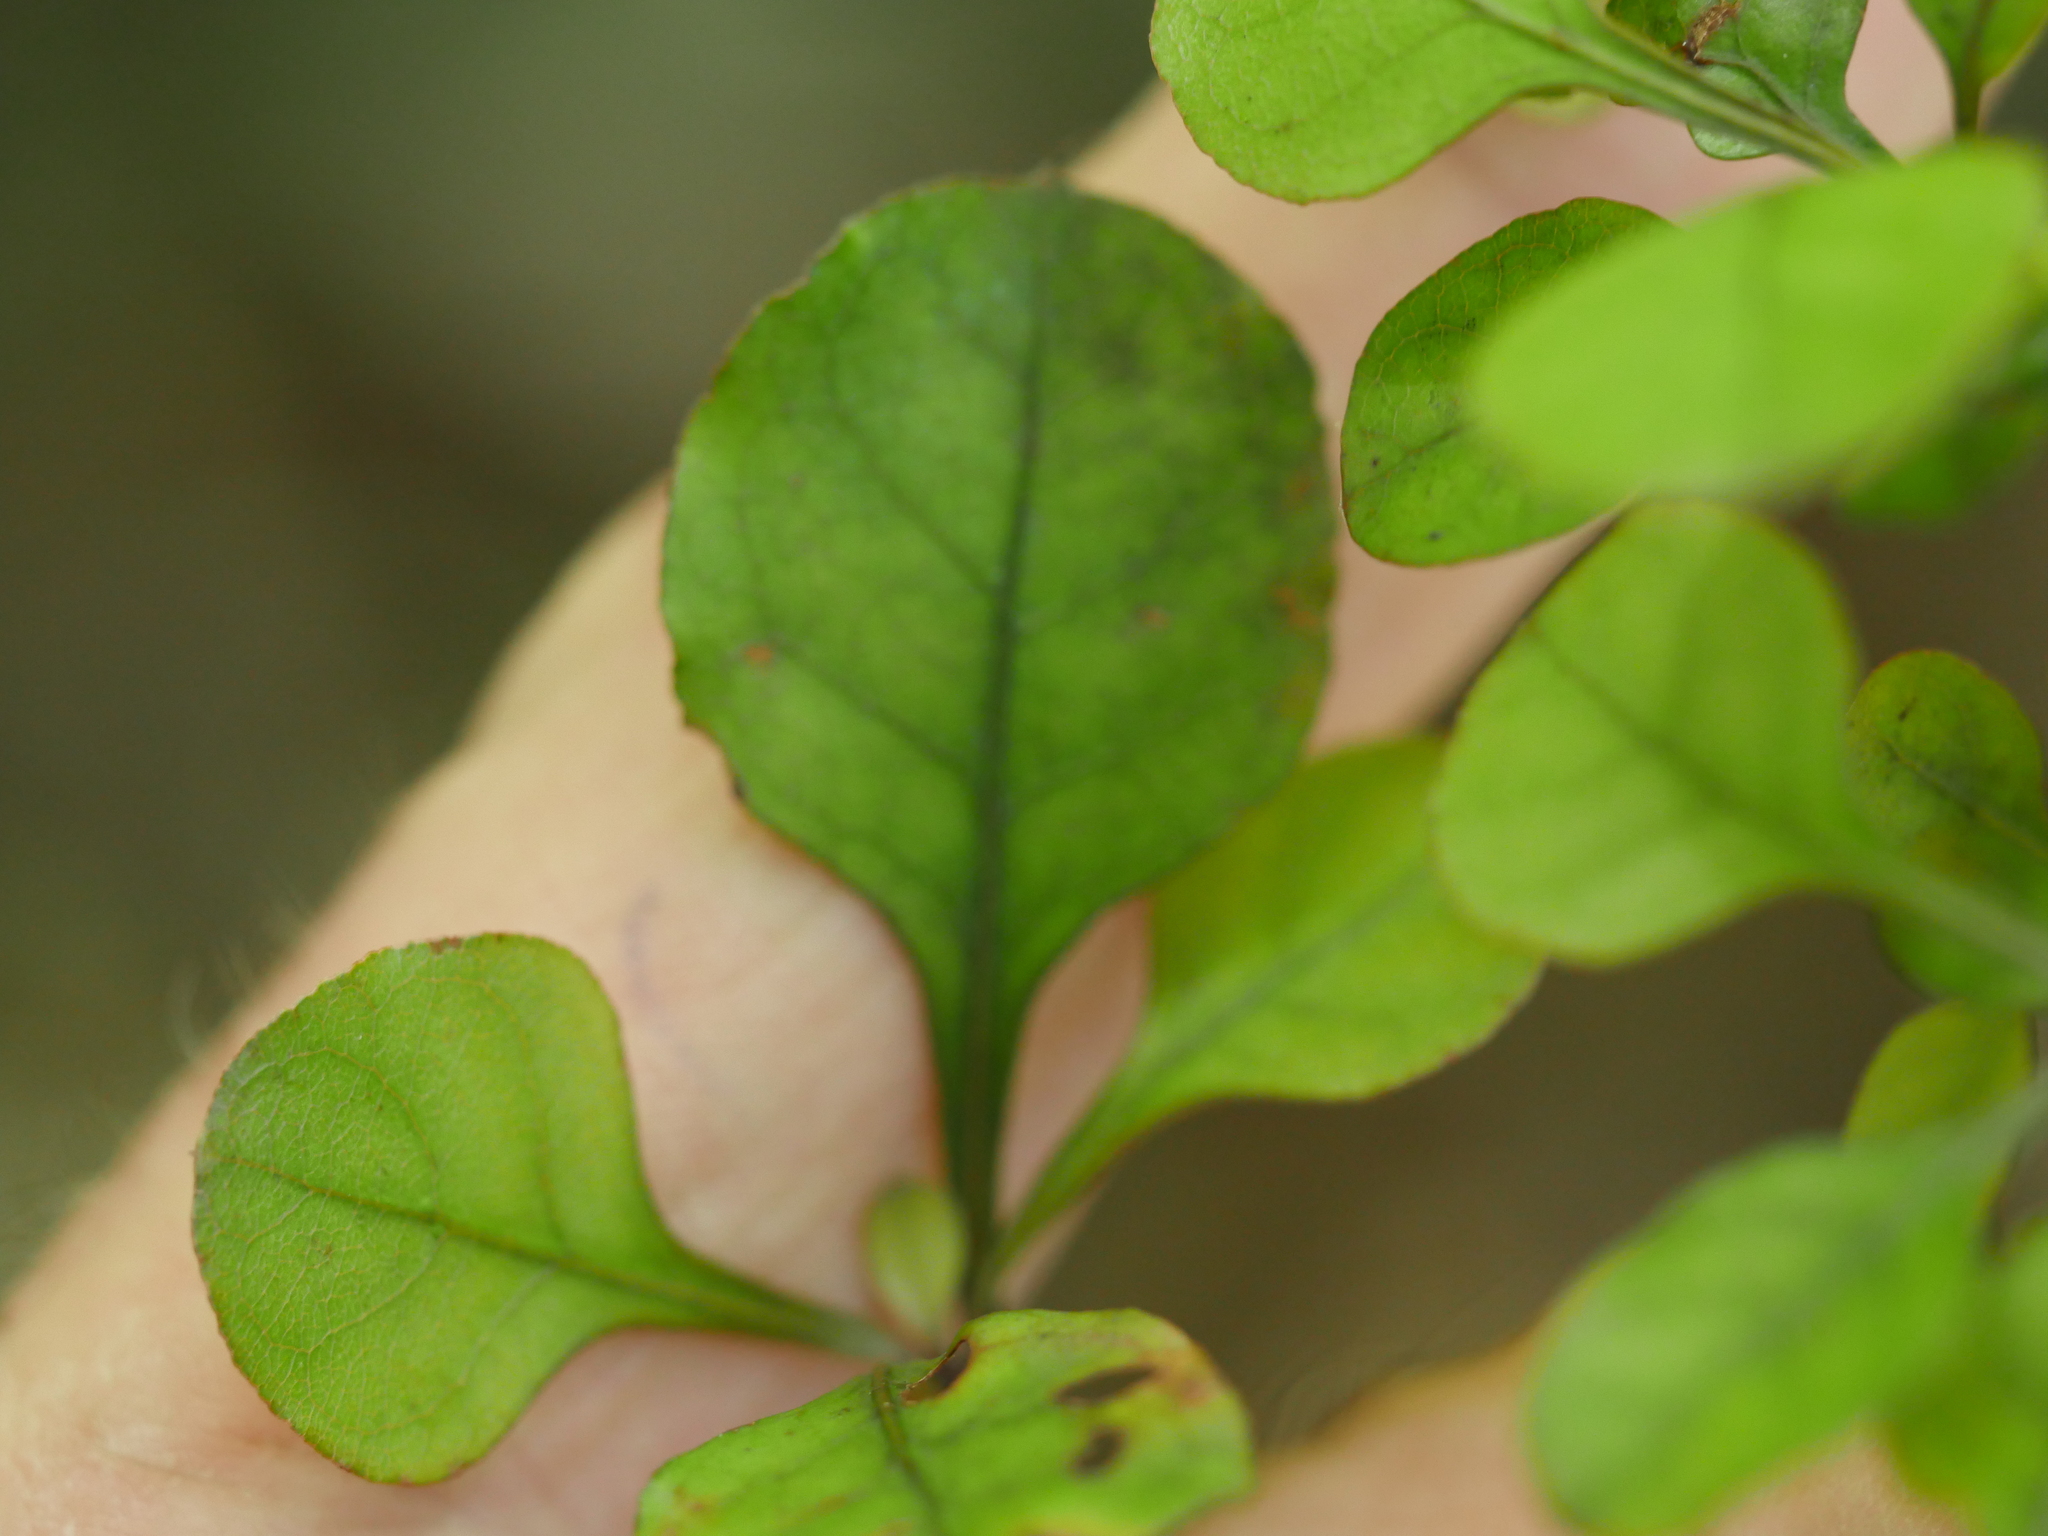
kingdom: Plantae
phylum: Tracheophyta
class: Magnoliopsida
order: Gentianales
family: Rubiaceae
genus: Coprosma
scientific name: Coprosma spathulata
